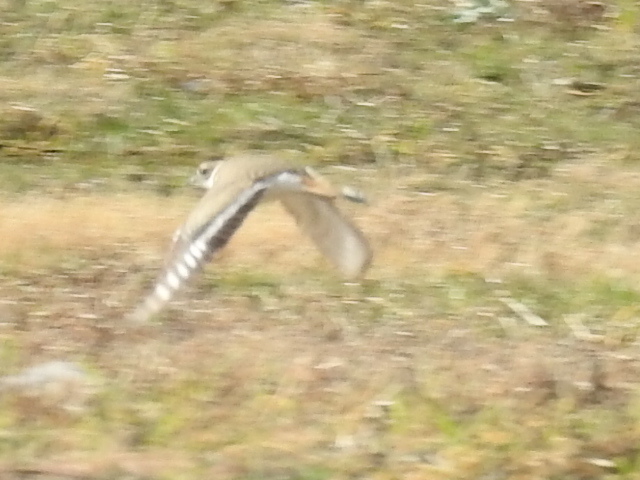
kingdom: Animalia
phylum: Chordata
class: Aves
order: Charadriiformes
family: Charadriidae
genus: Charadrius
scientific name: Charadrius vociferus
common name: Killdeer
